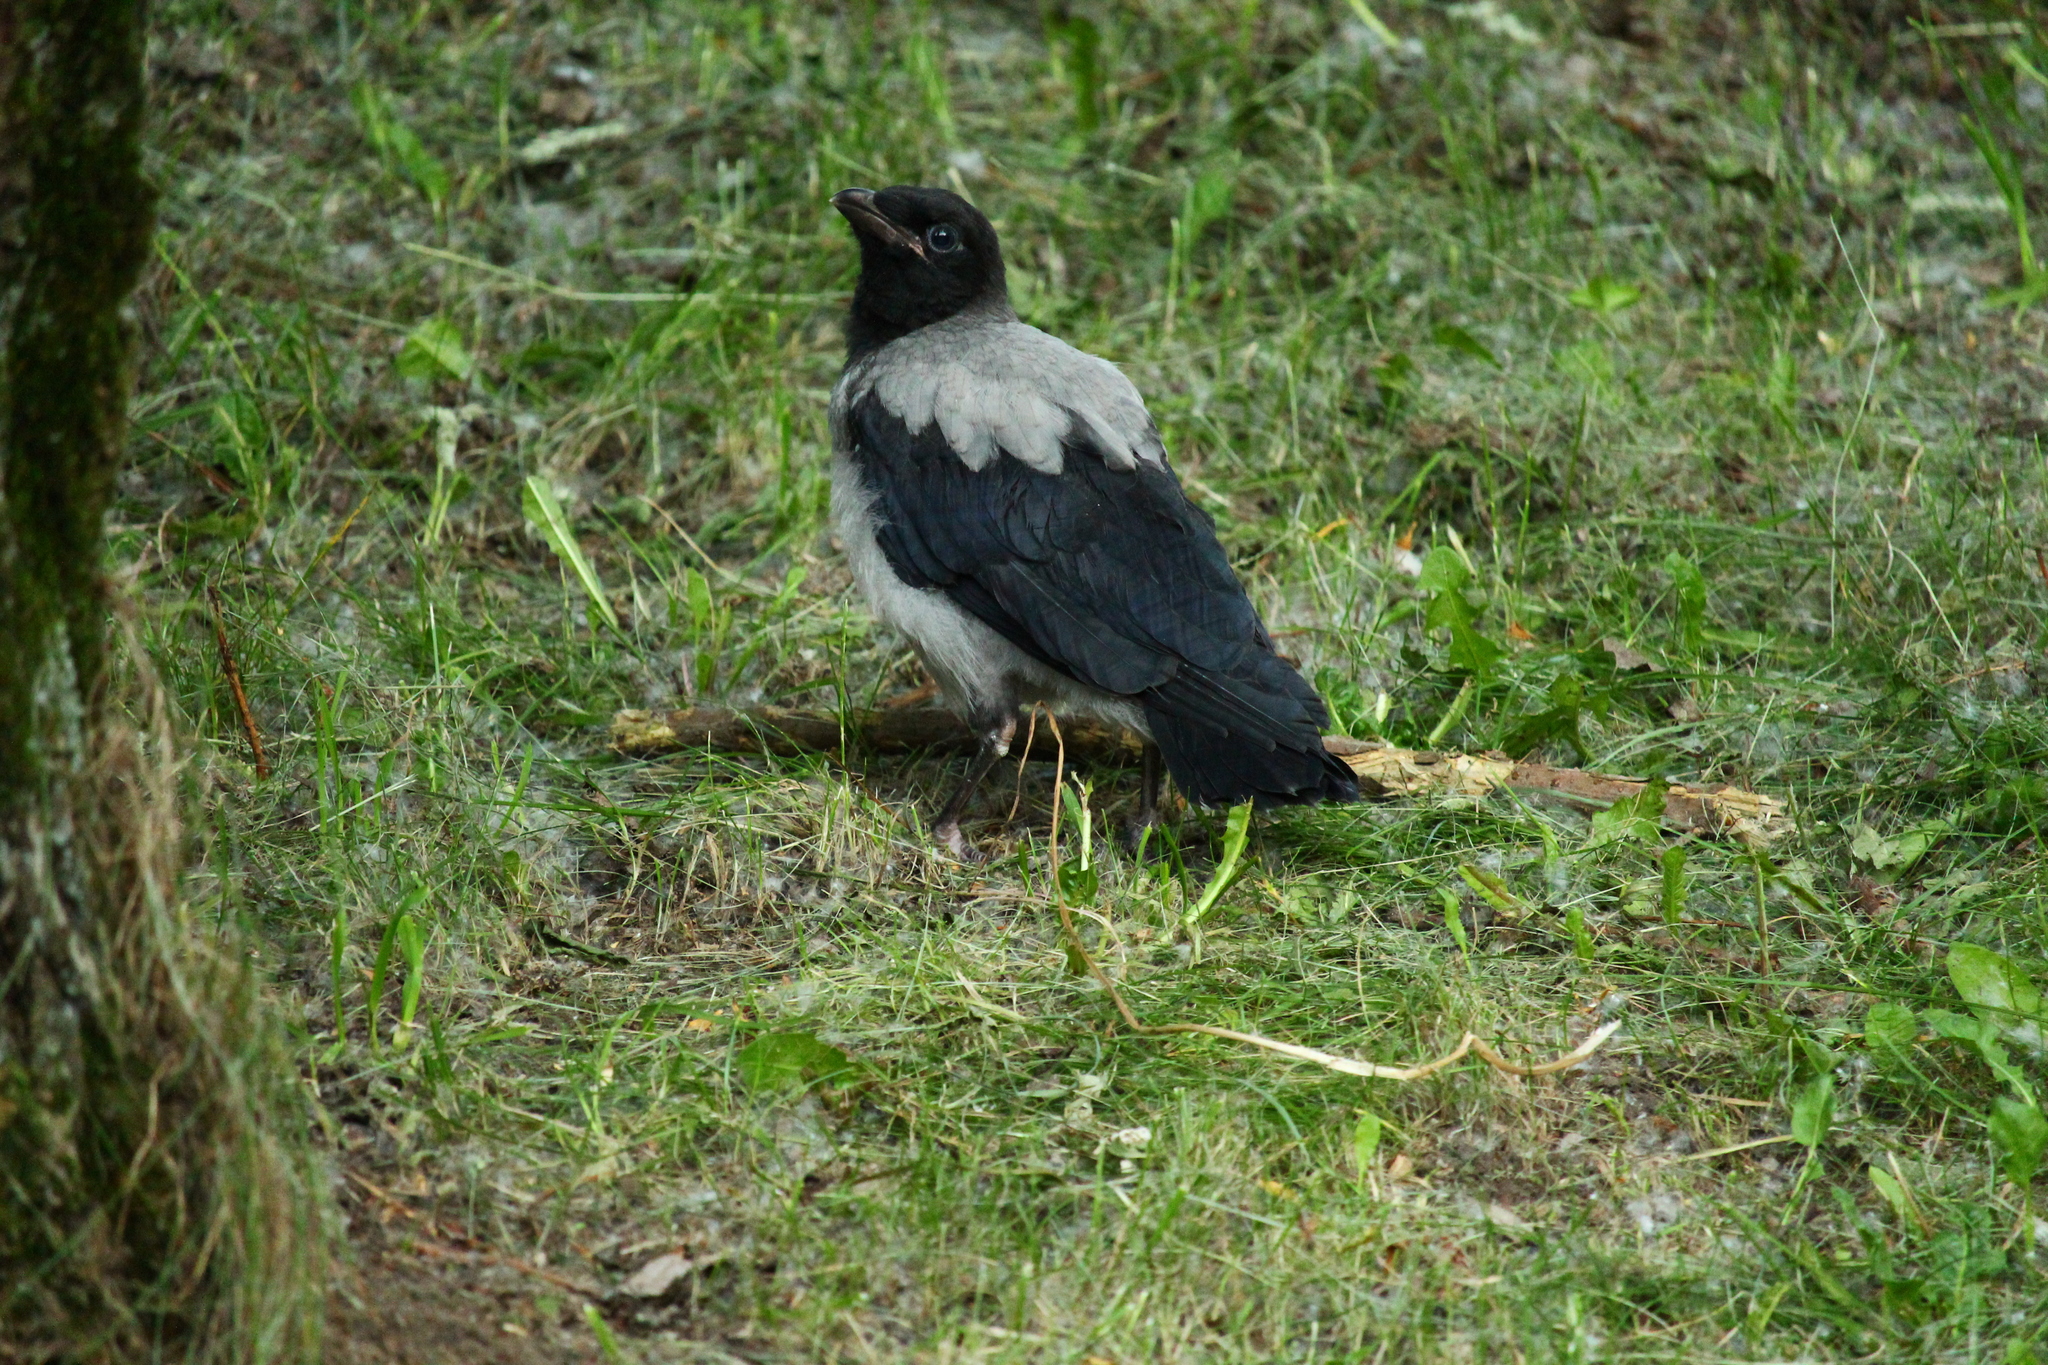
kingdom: Animalia
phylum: Chordata
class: Aves
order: Passeriformes
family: Corvidae
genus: Corvus
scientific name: Corvus cornix
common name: Hooded crow
